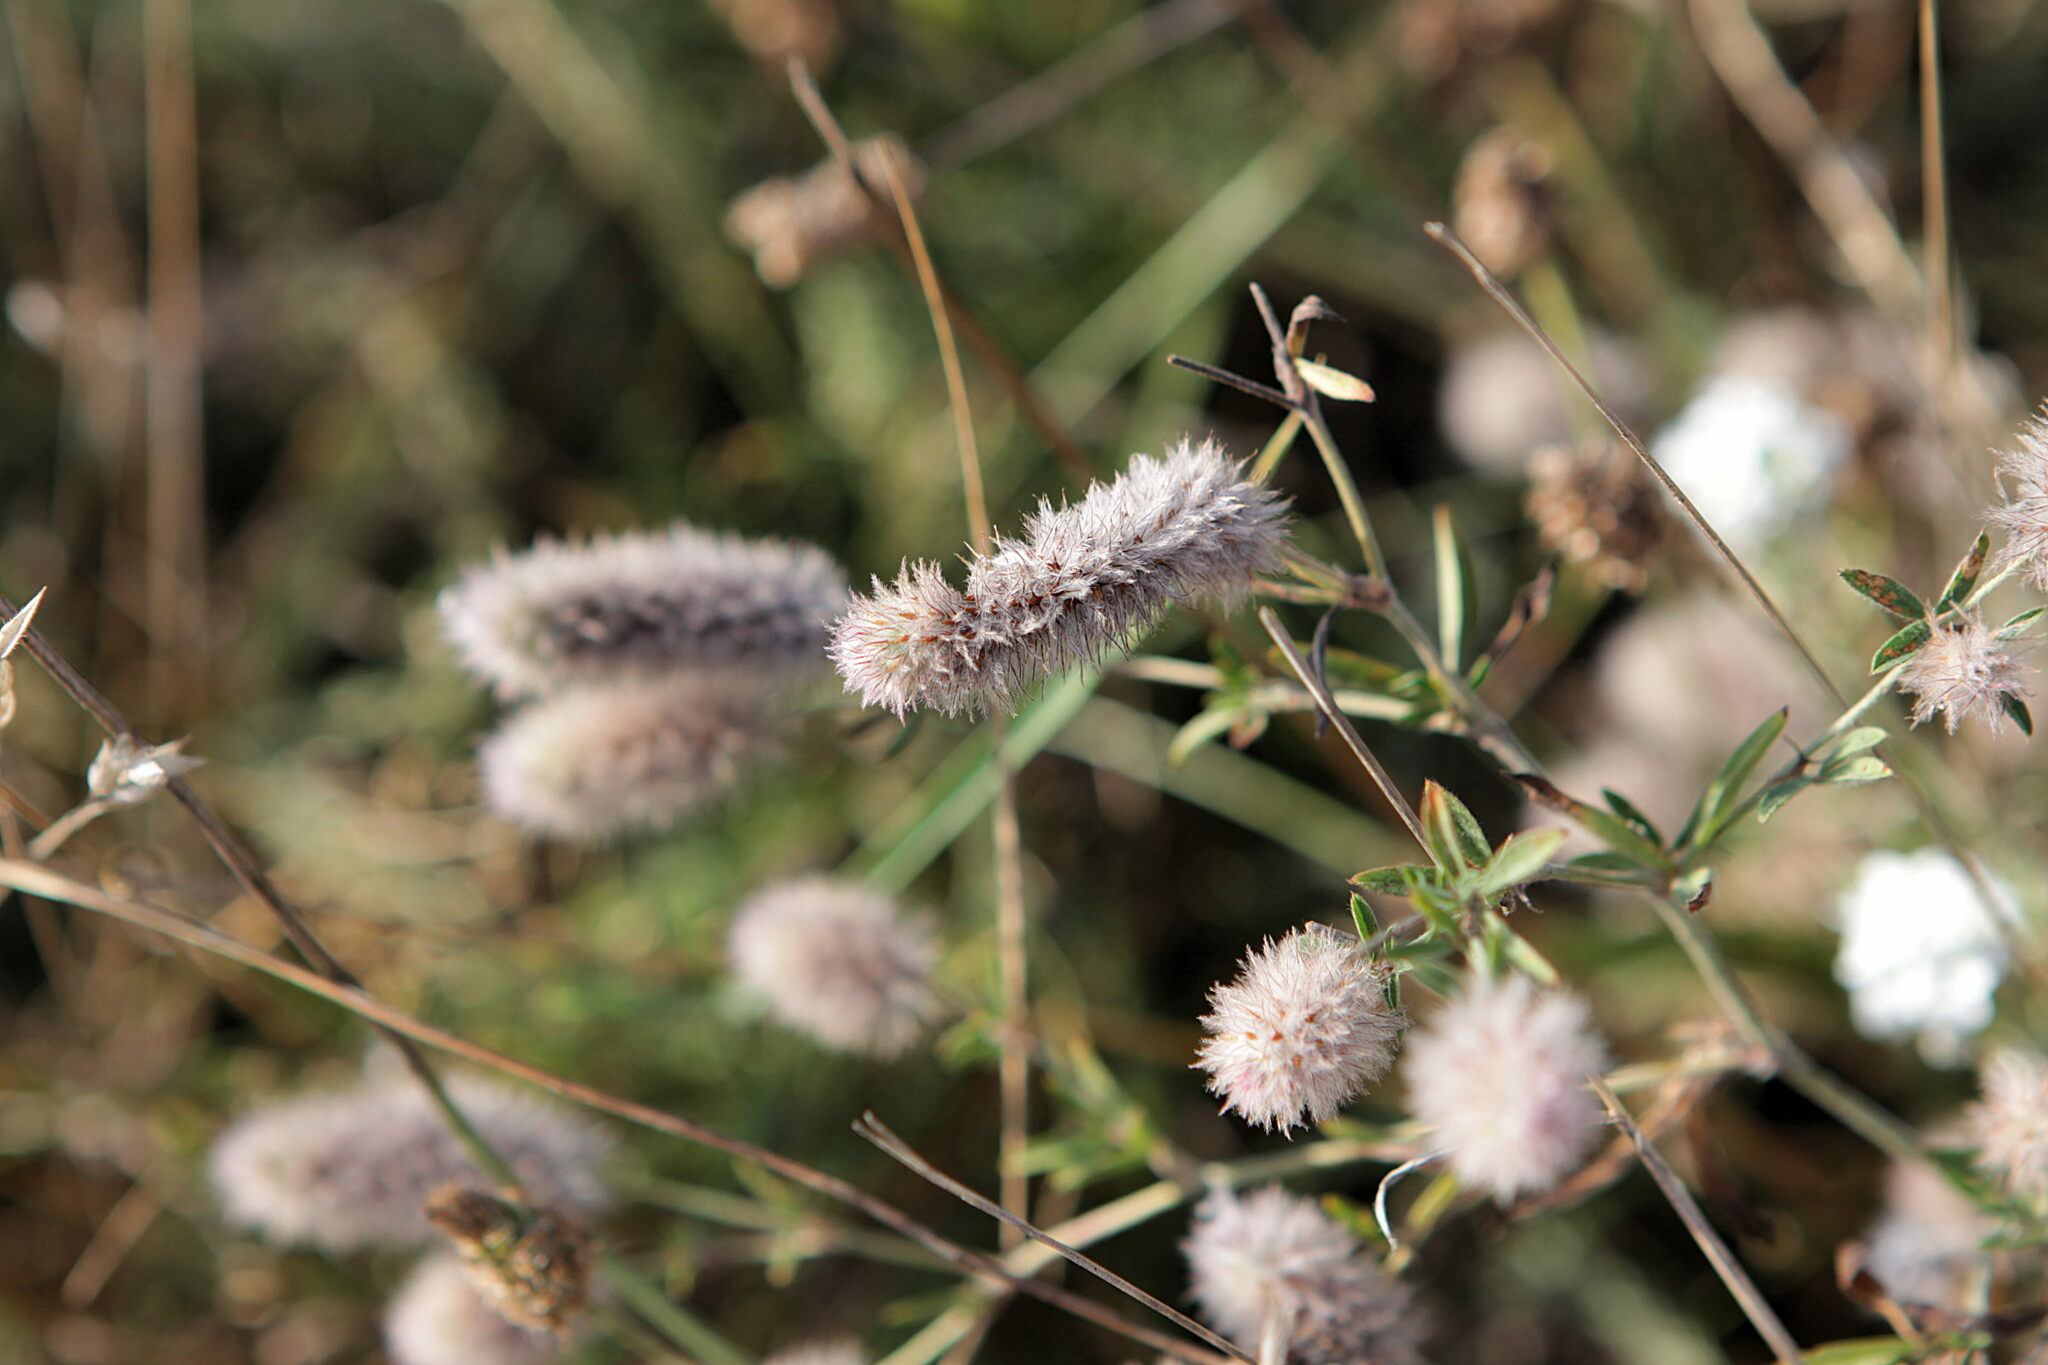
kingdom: Plantae
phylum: Tracheophyta
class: Magnoliopsida
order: Fabales
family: Fabaceae
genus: Trifolium
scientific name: Trifolium arvense
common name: Hare's-foot clover
